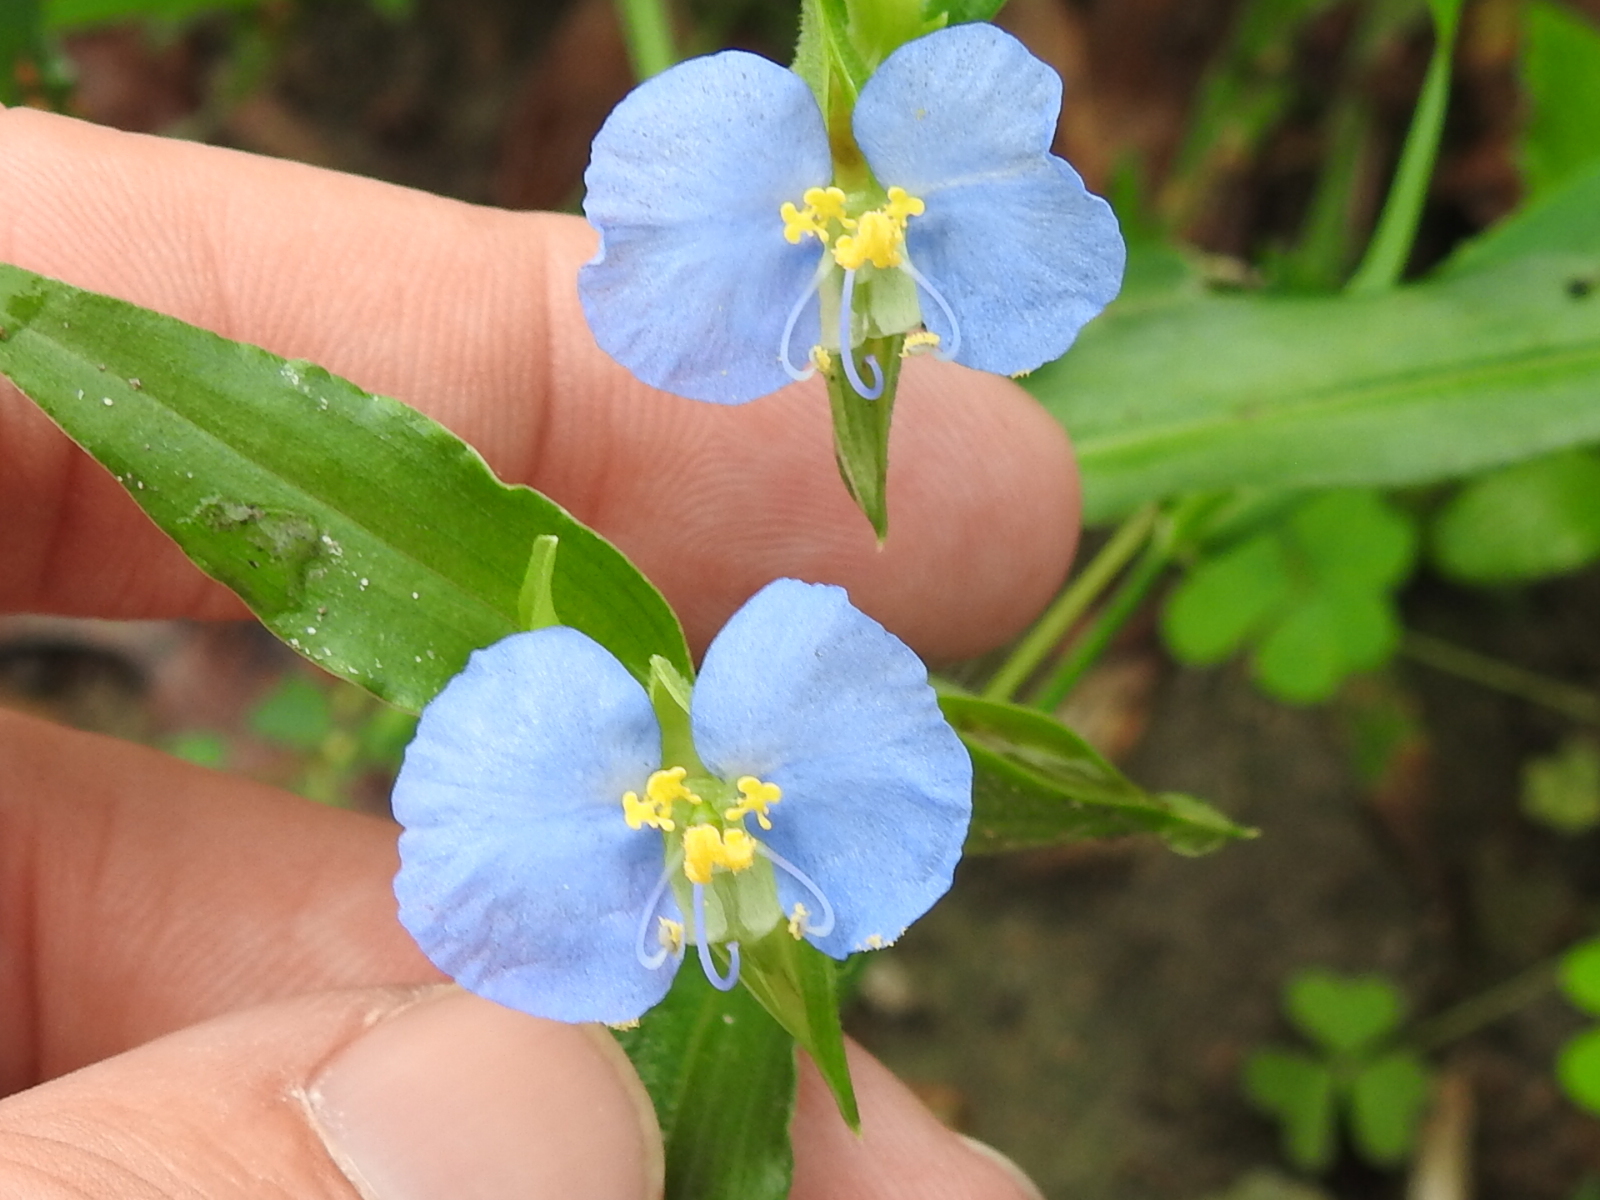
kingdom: Plantae
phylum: Tracheophyta
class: Liliopsida
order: Commelinales
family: Commelinaceae
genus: Commelina
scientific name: Commelina erecta
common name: Blousel blommetjie
